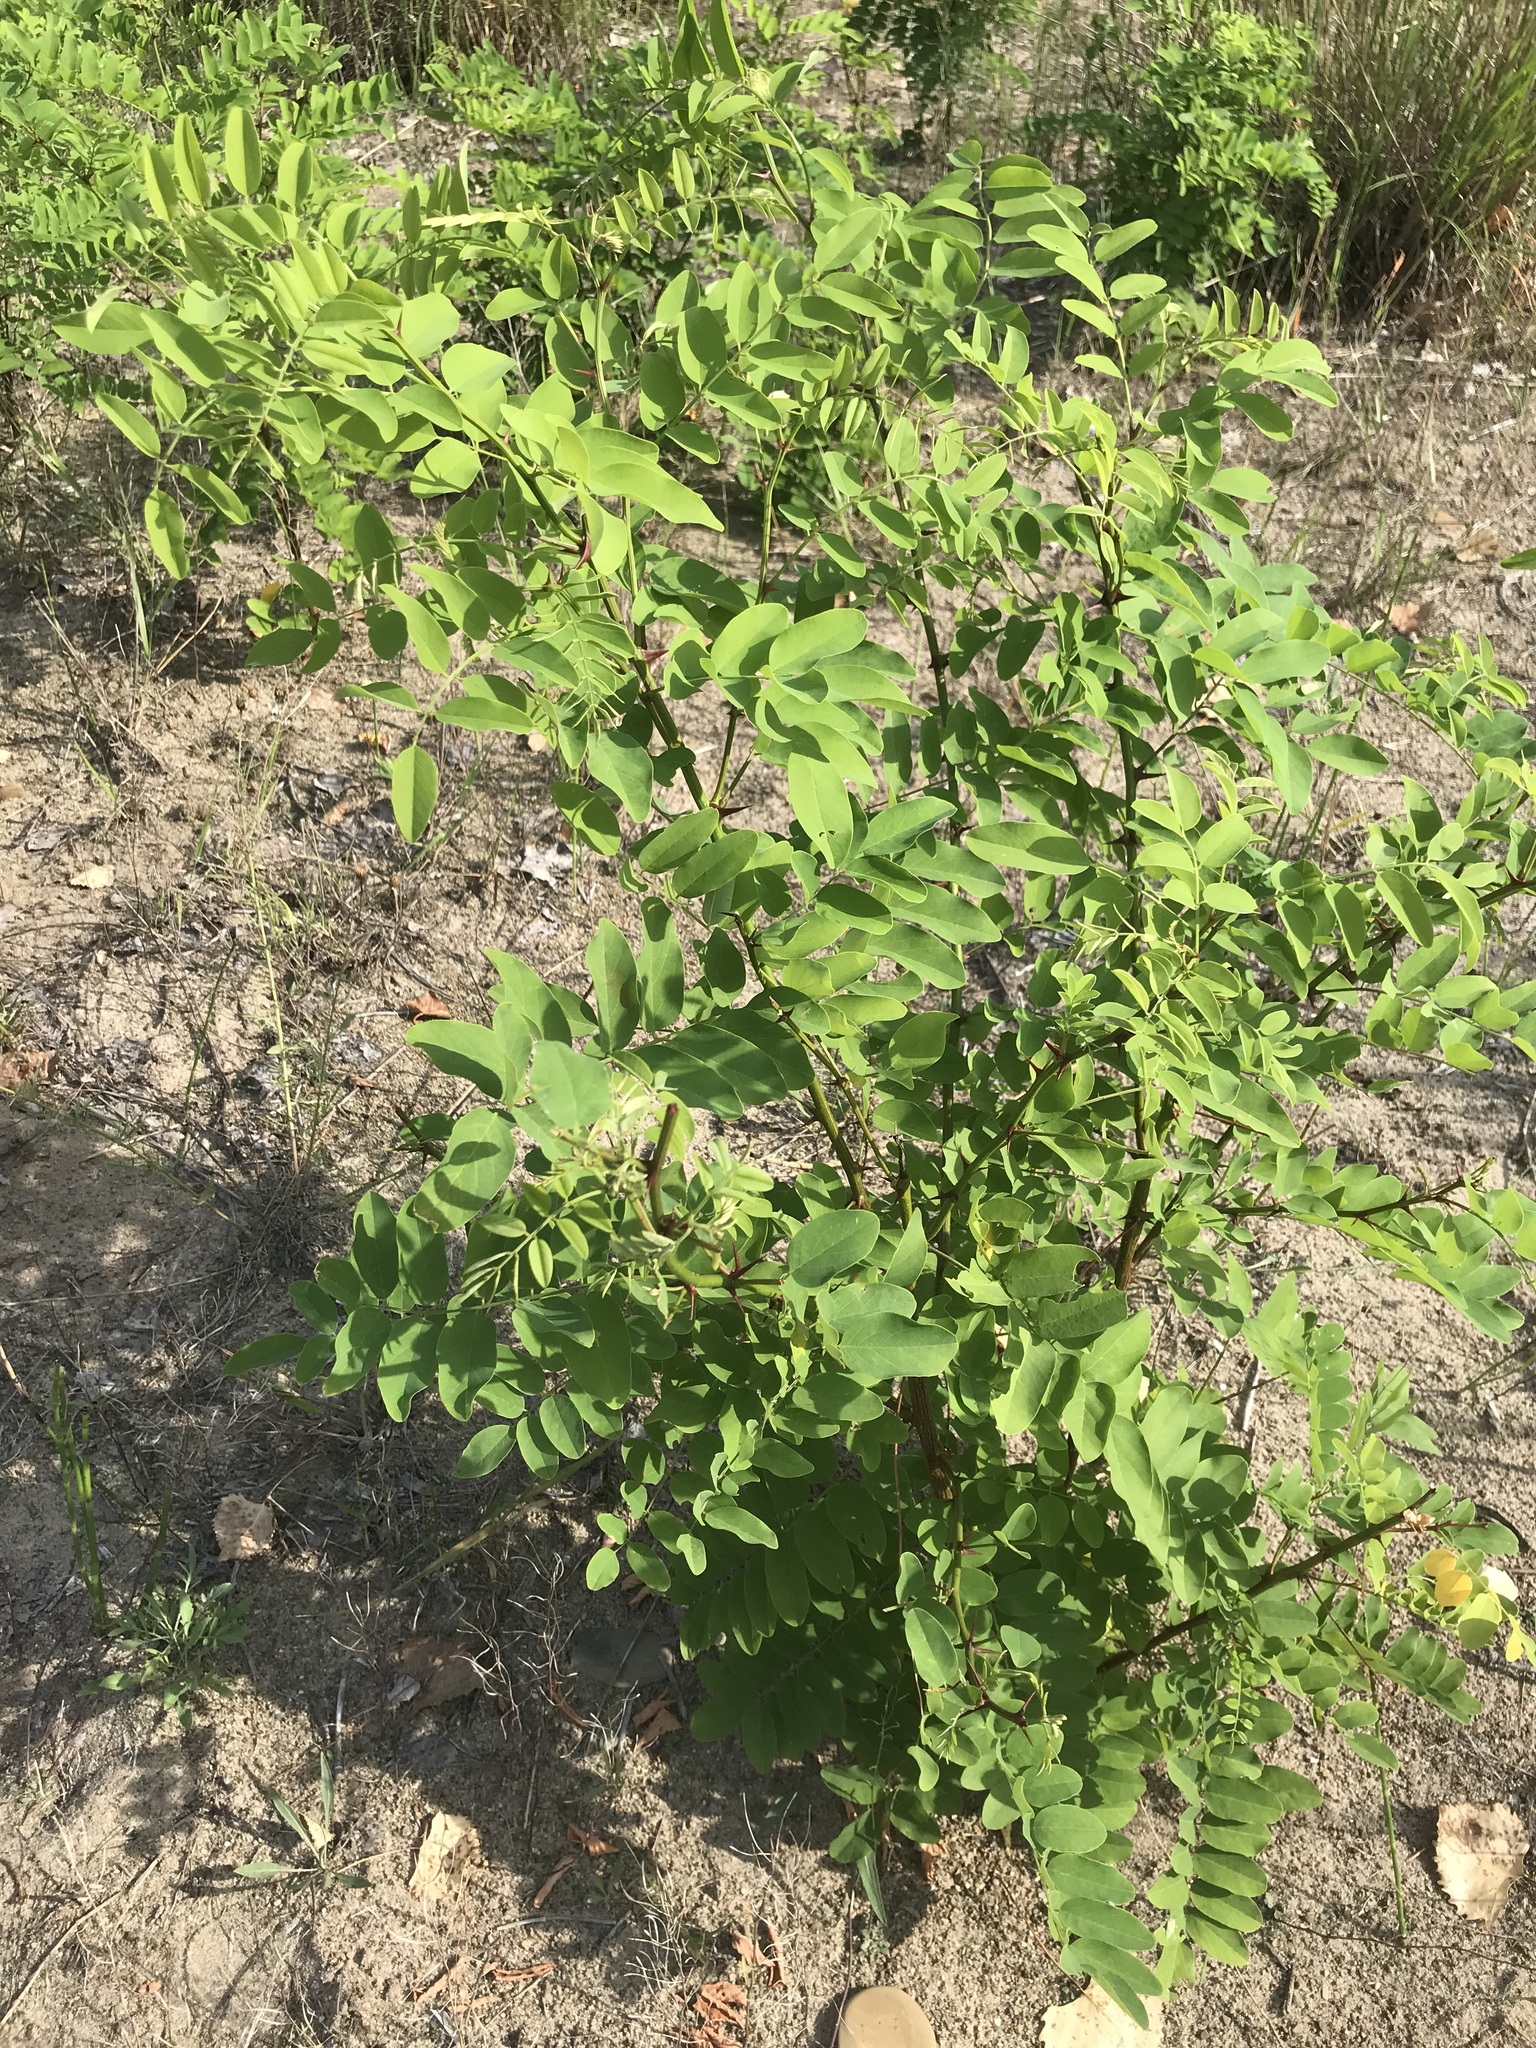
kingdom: Plantae
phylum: Tracheophyta
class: Magnoliopsida
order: Fabales
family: Fabaceae
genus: Robinia
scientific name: Robinia pseudoacacia
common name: Black locust
